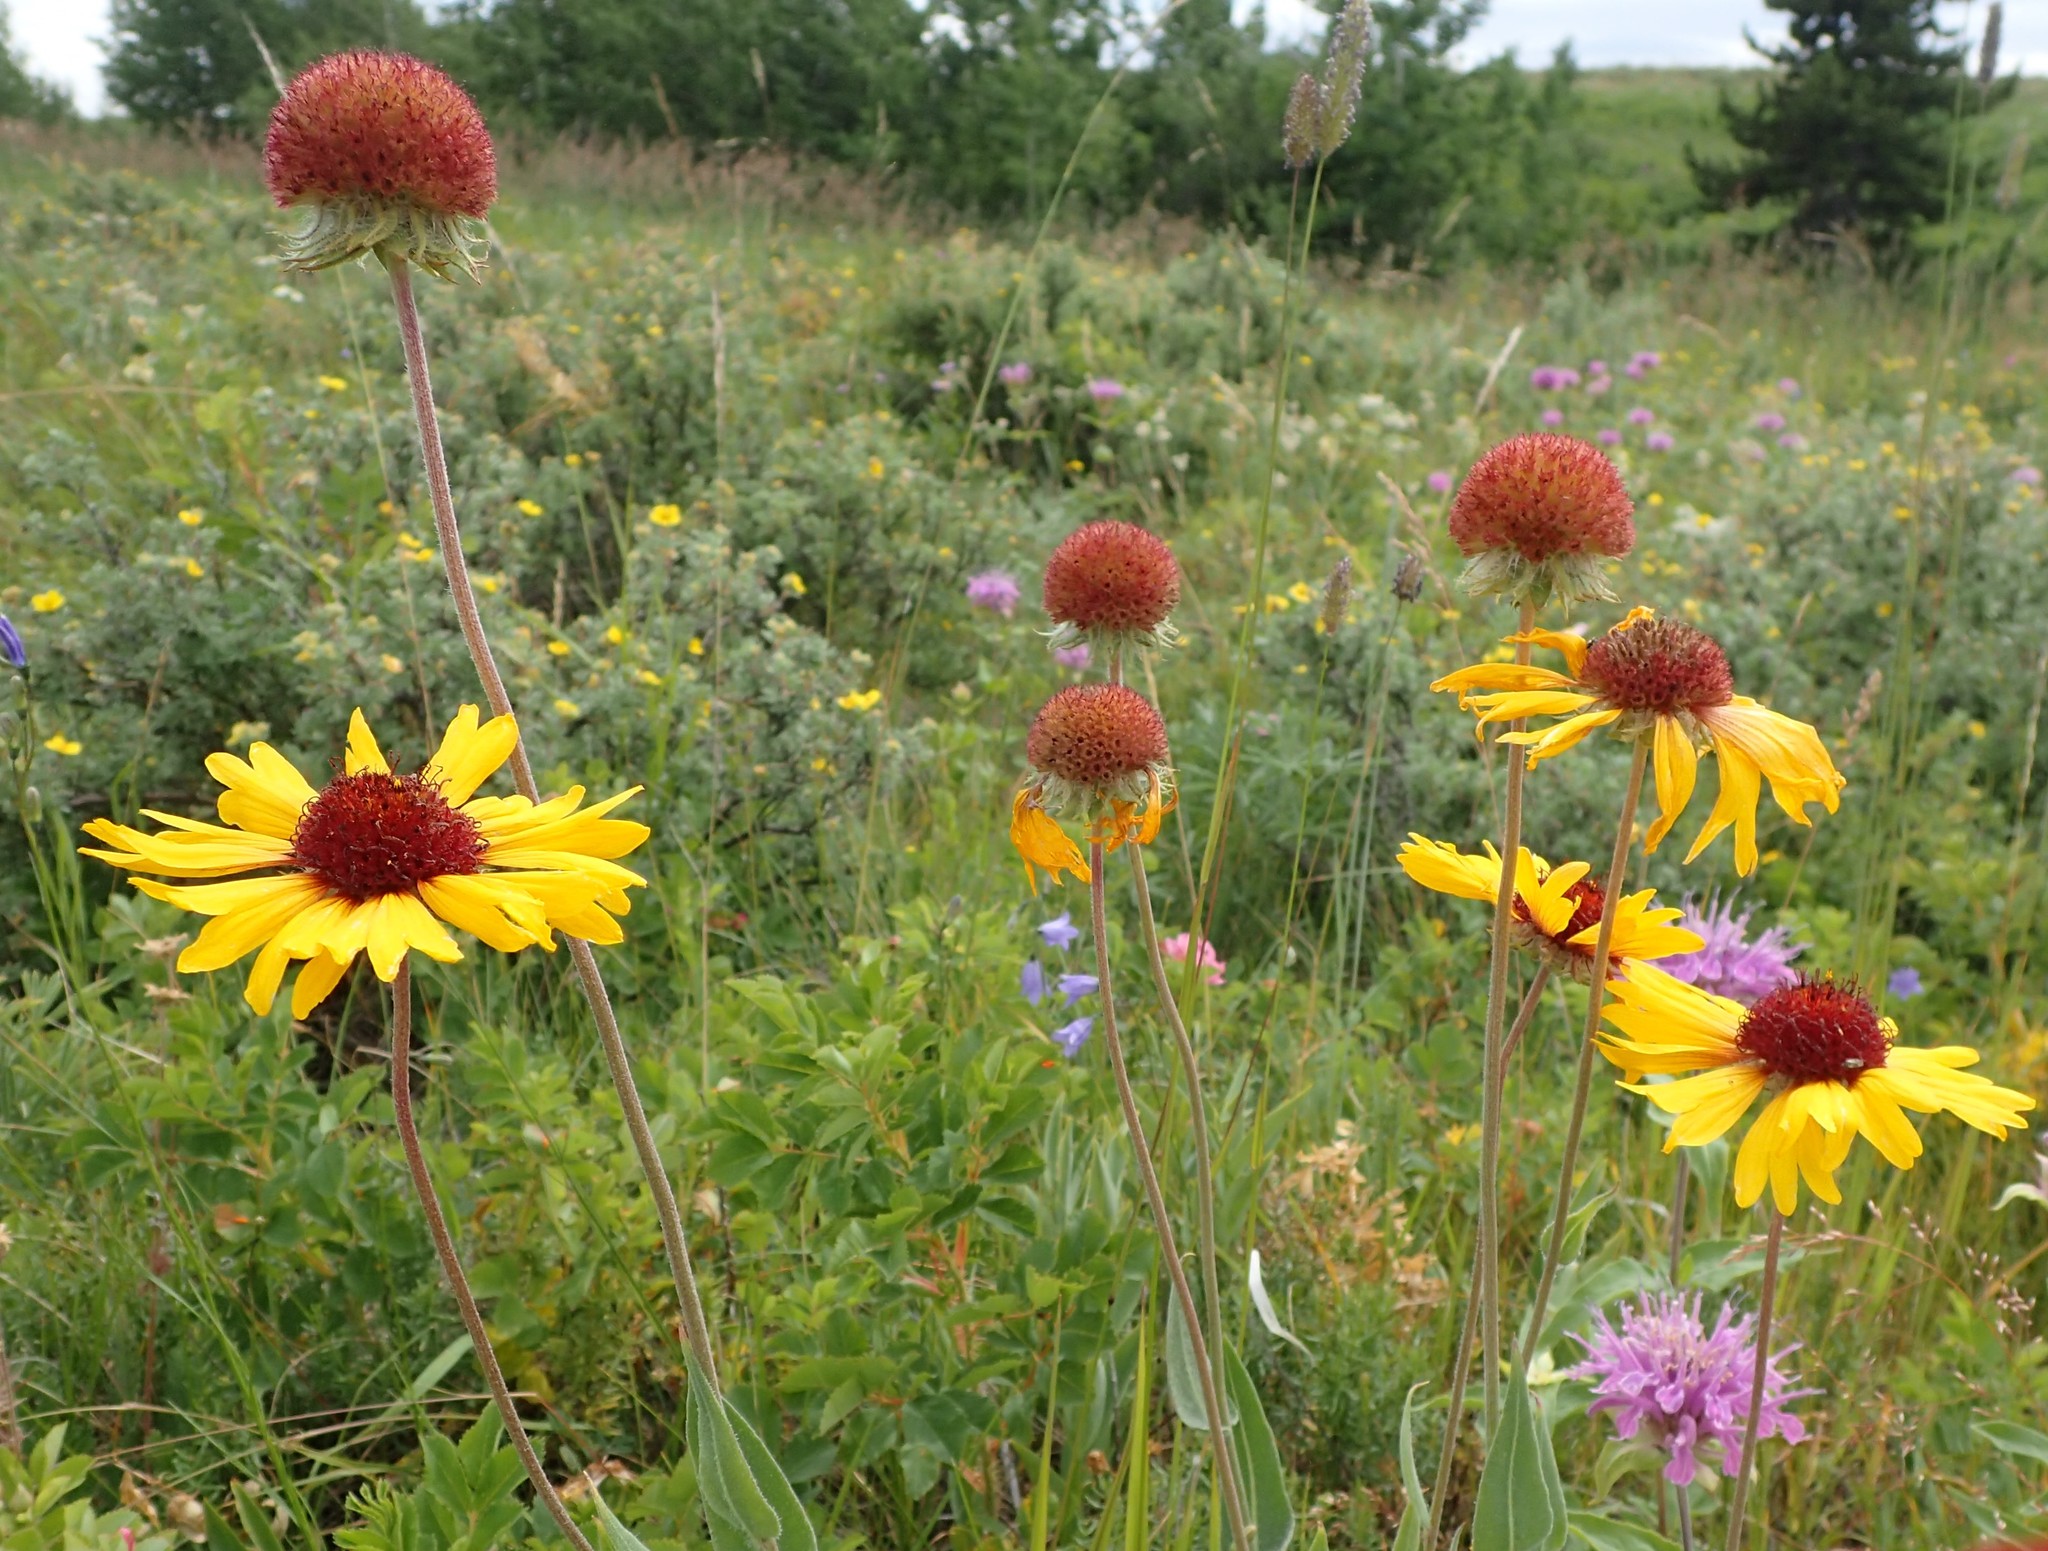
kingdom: Plantae
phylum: Tracheophyta
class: Magnoliopsida
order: Asterales
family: Asteraceae
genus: Gaillardia
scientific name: Gaillardia aristata
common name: Blanket-flower
